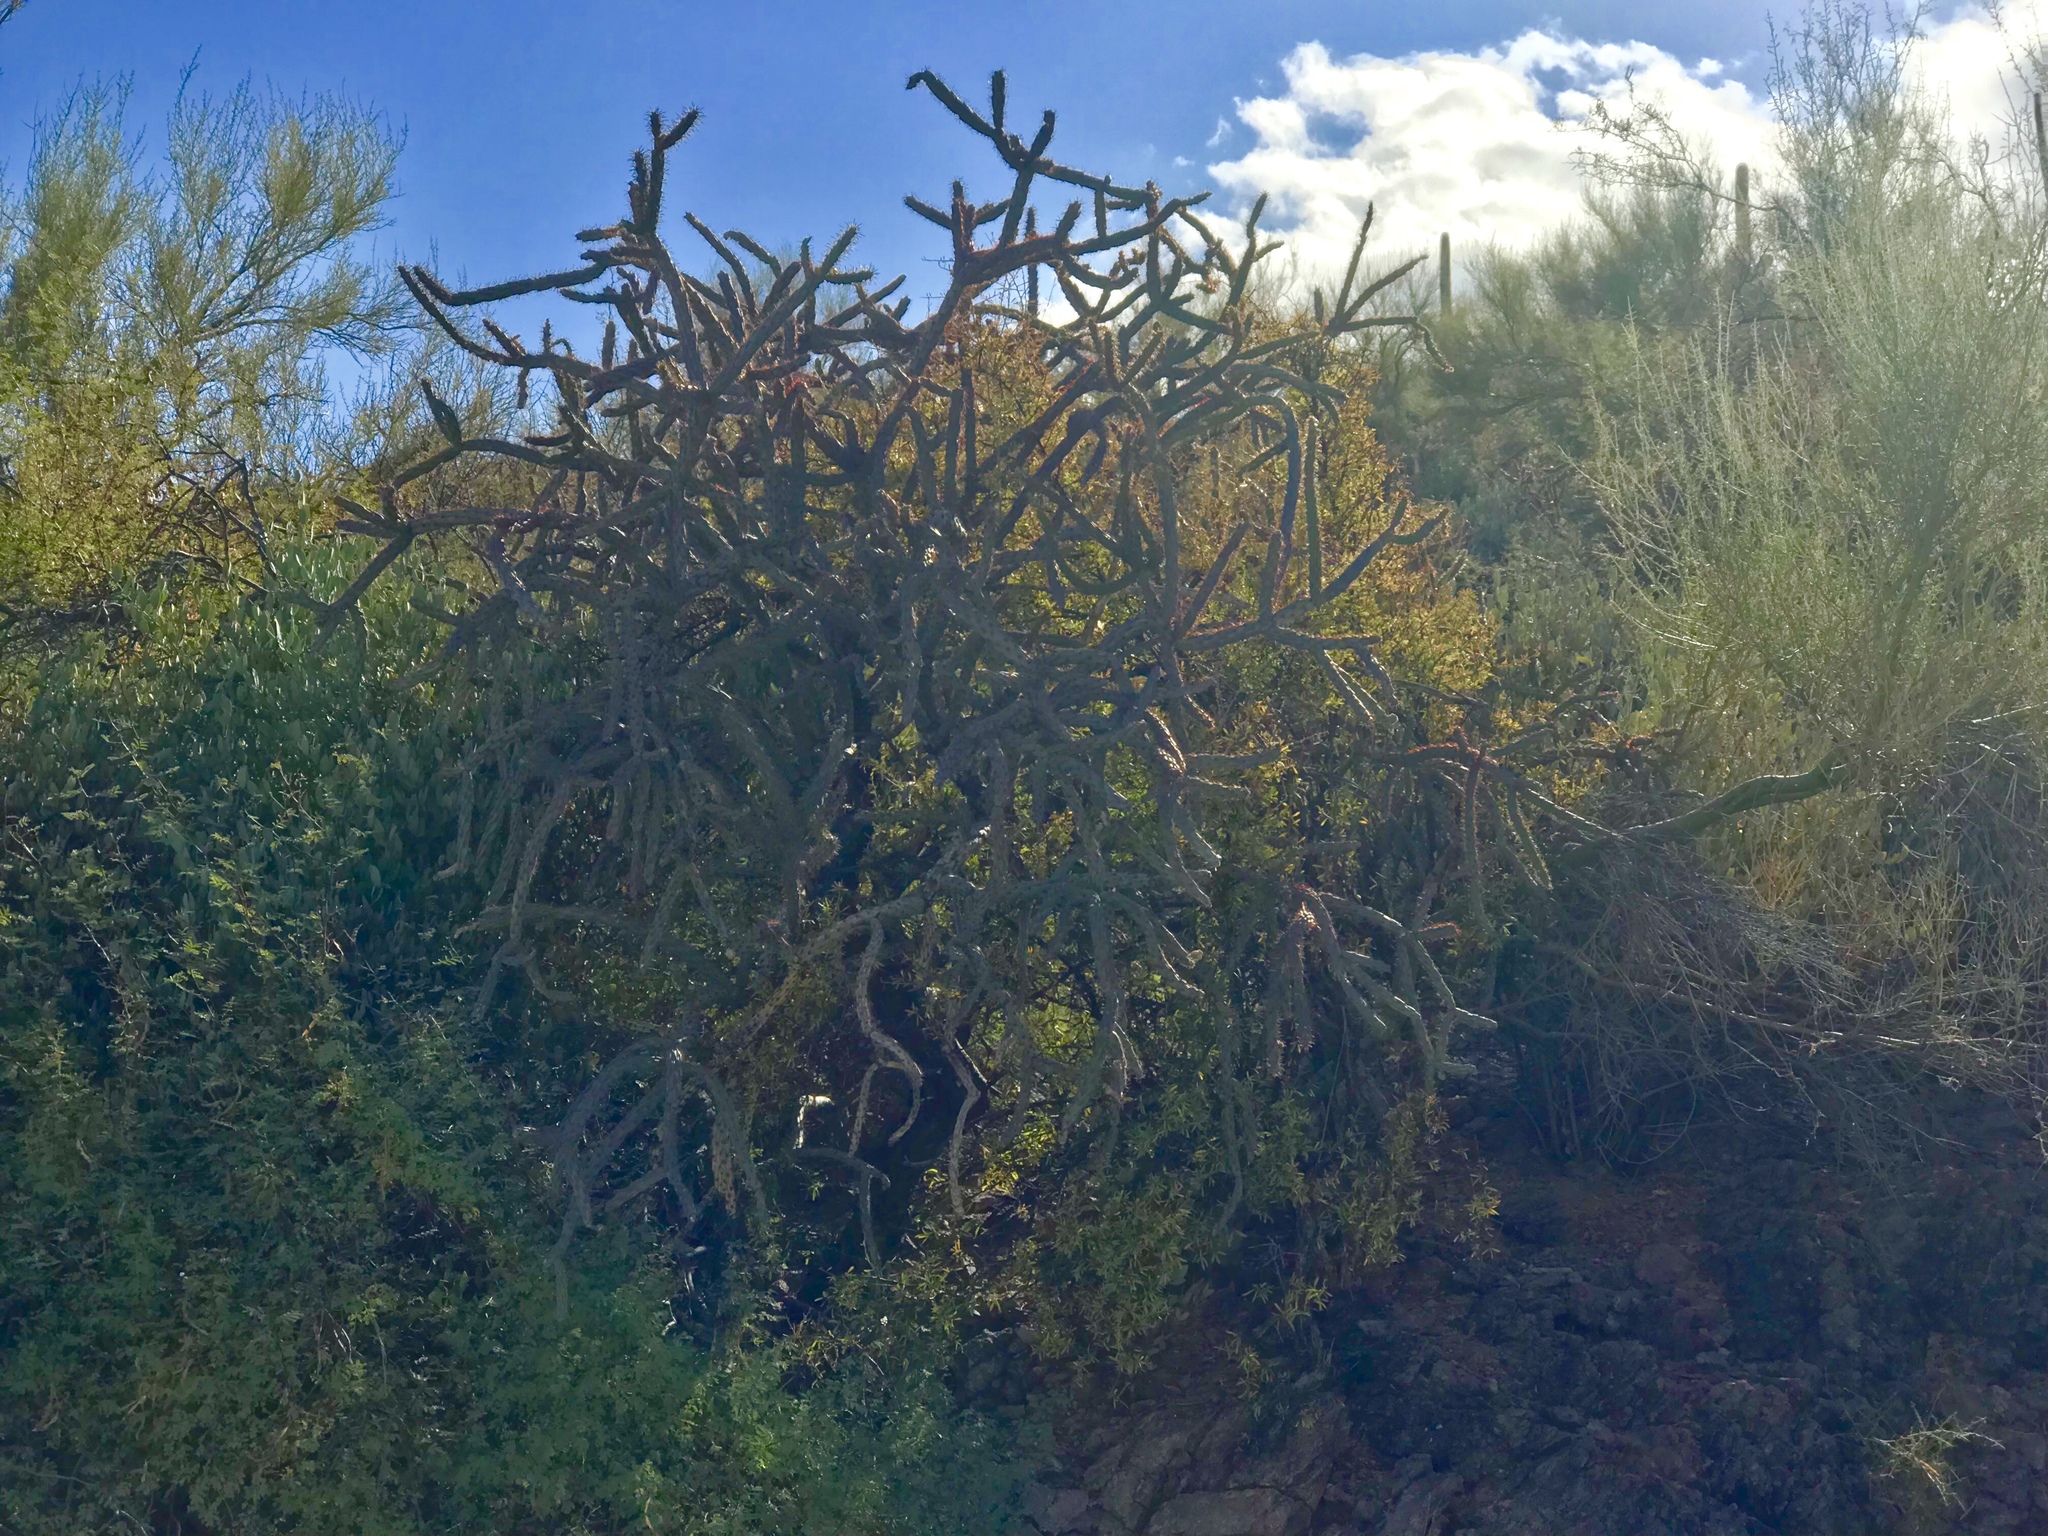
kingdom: Plantae
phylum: Tracheophyta
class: Magnoliopsida
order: Caryophyllales
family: Cactaceae
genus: Cylindropuntia
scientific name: Cylindropuntia thurberi
